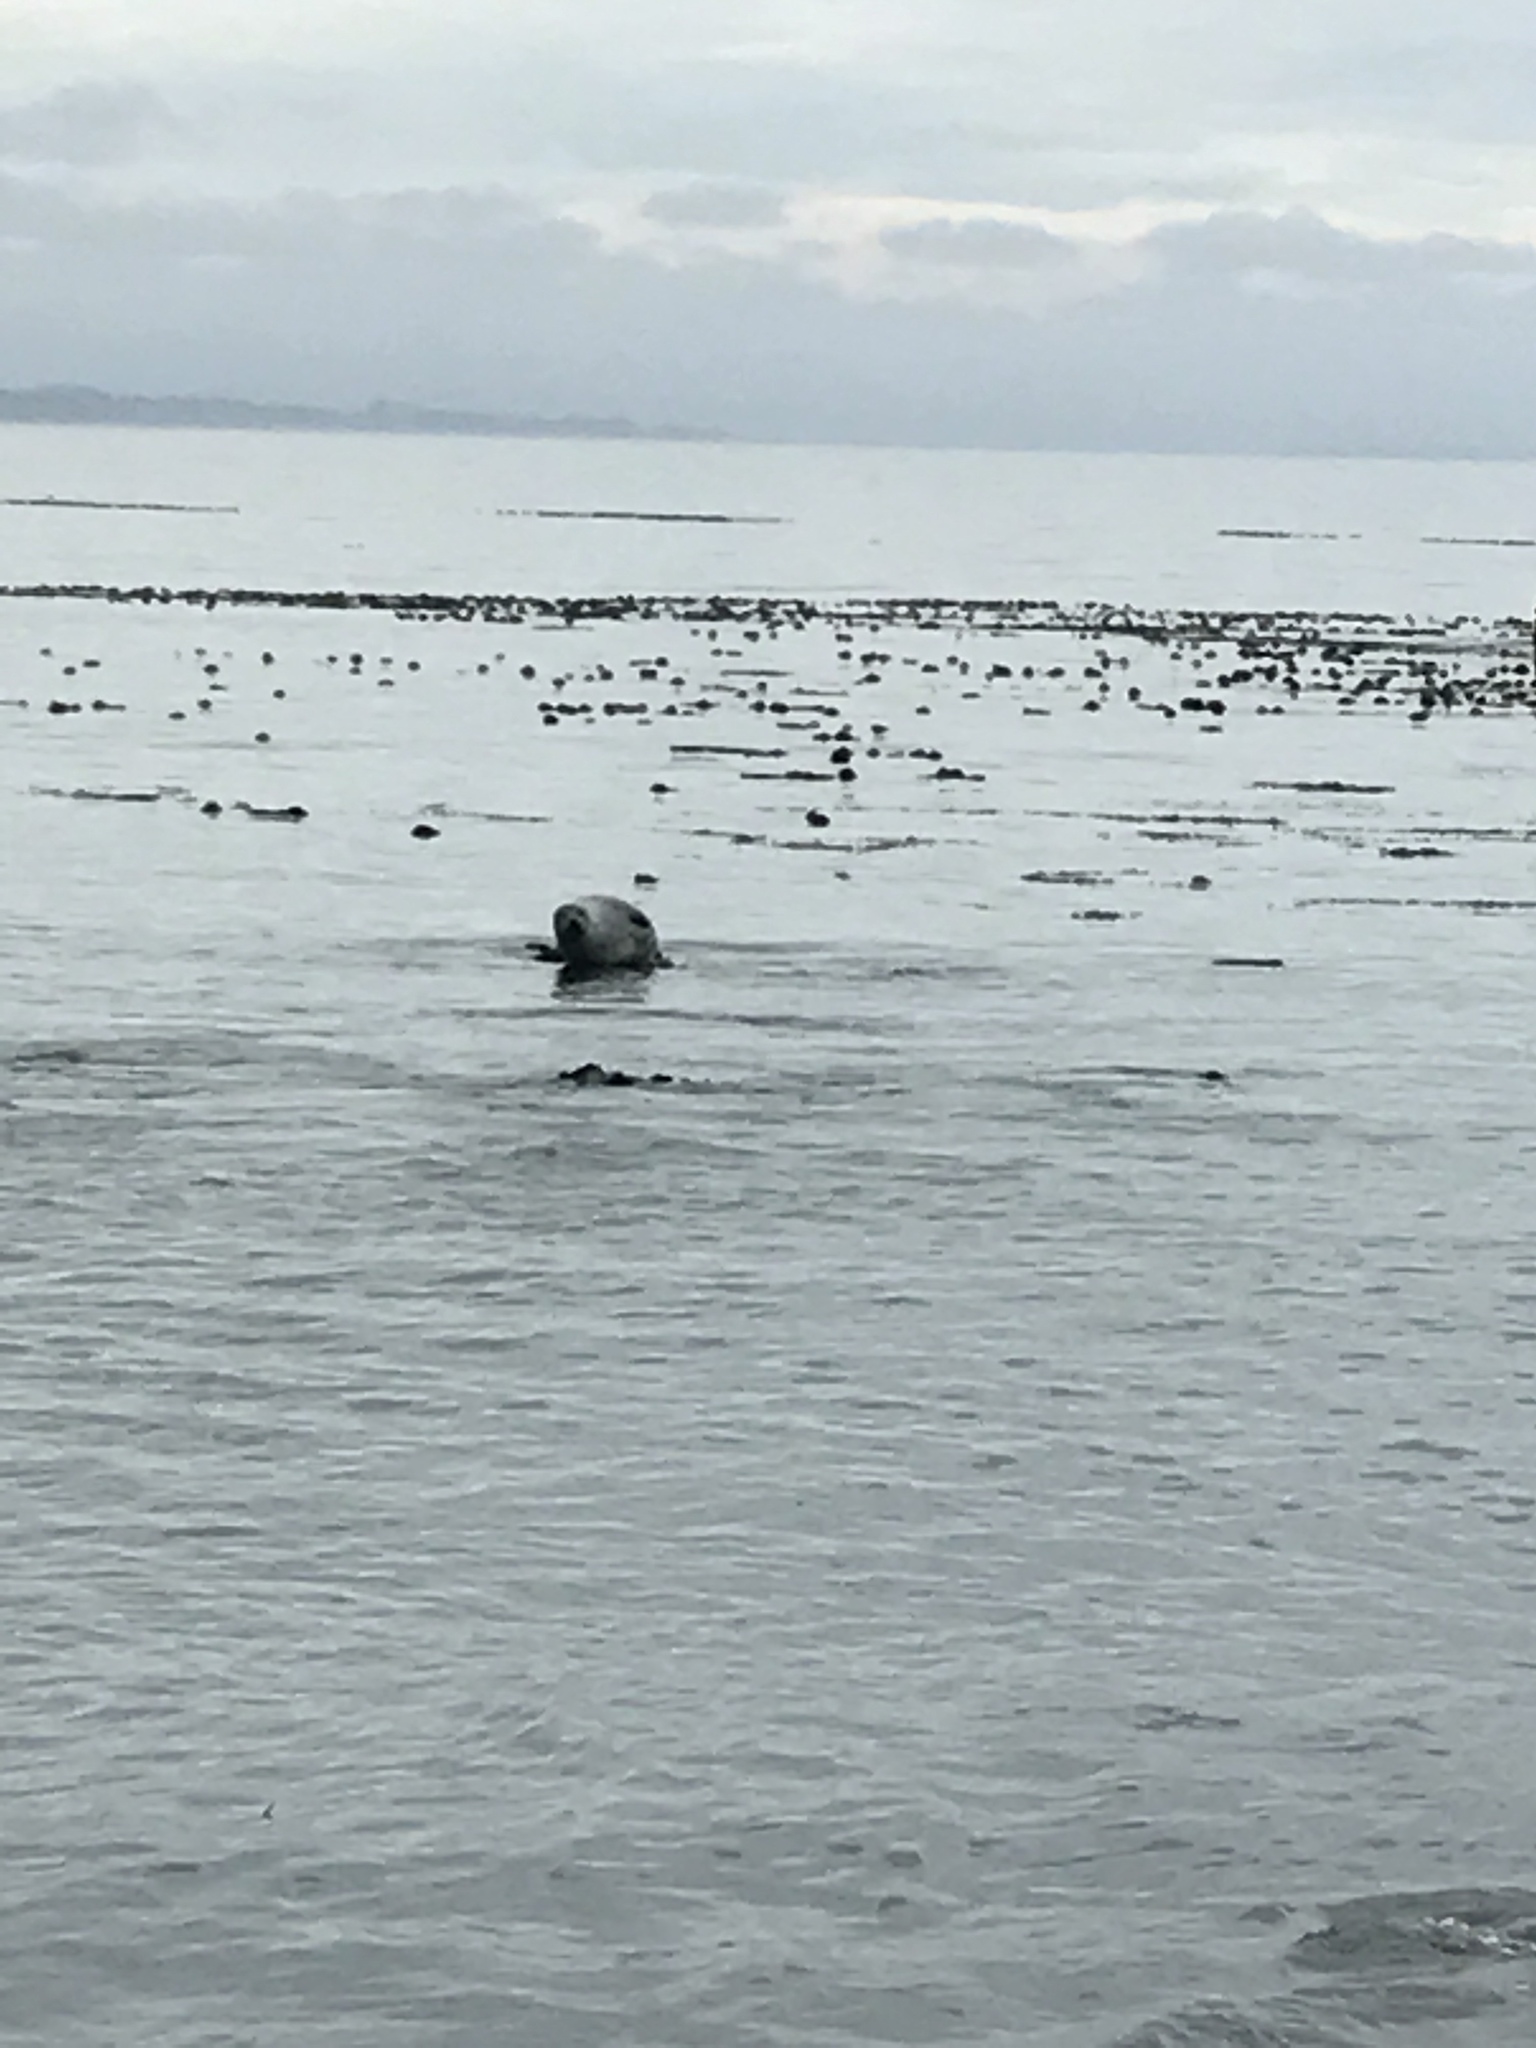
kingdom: Animalia
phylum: Chordata
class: Mammalia
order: Carnivora
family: Phocidae
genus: Phoca
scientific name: Phoca vitulina
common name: Harbor seal
